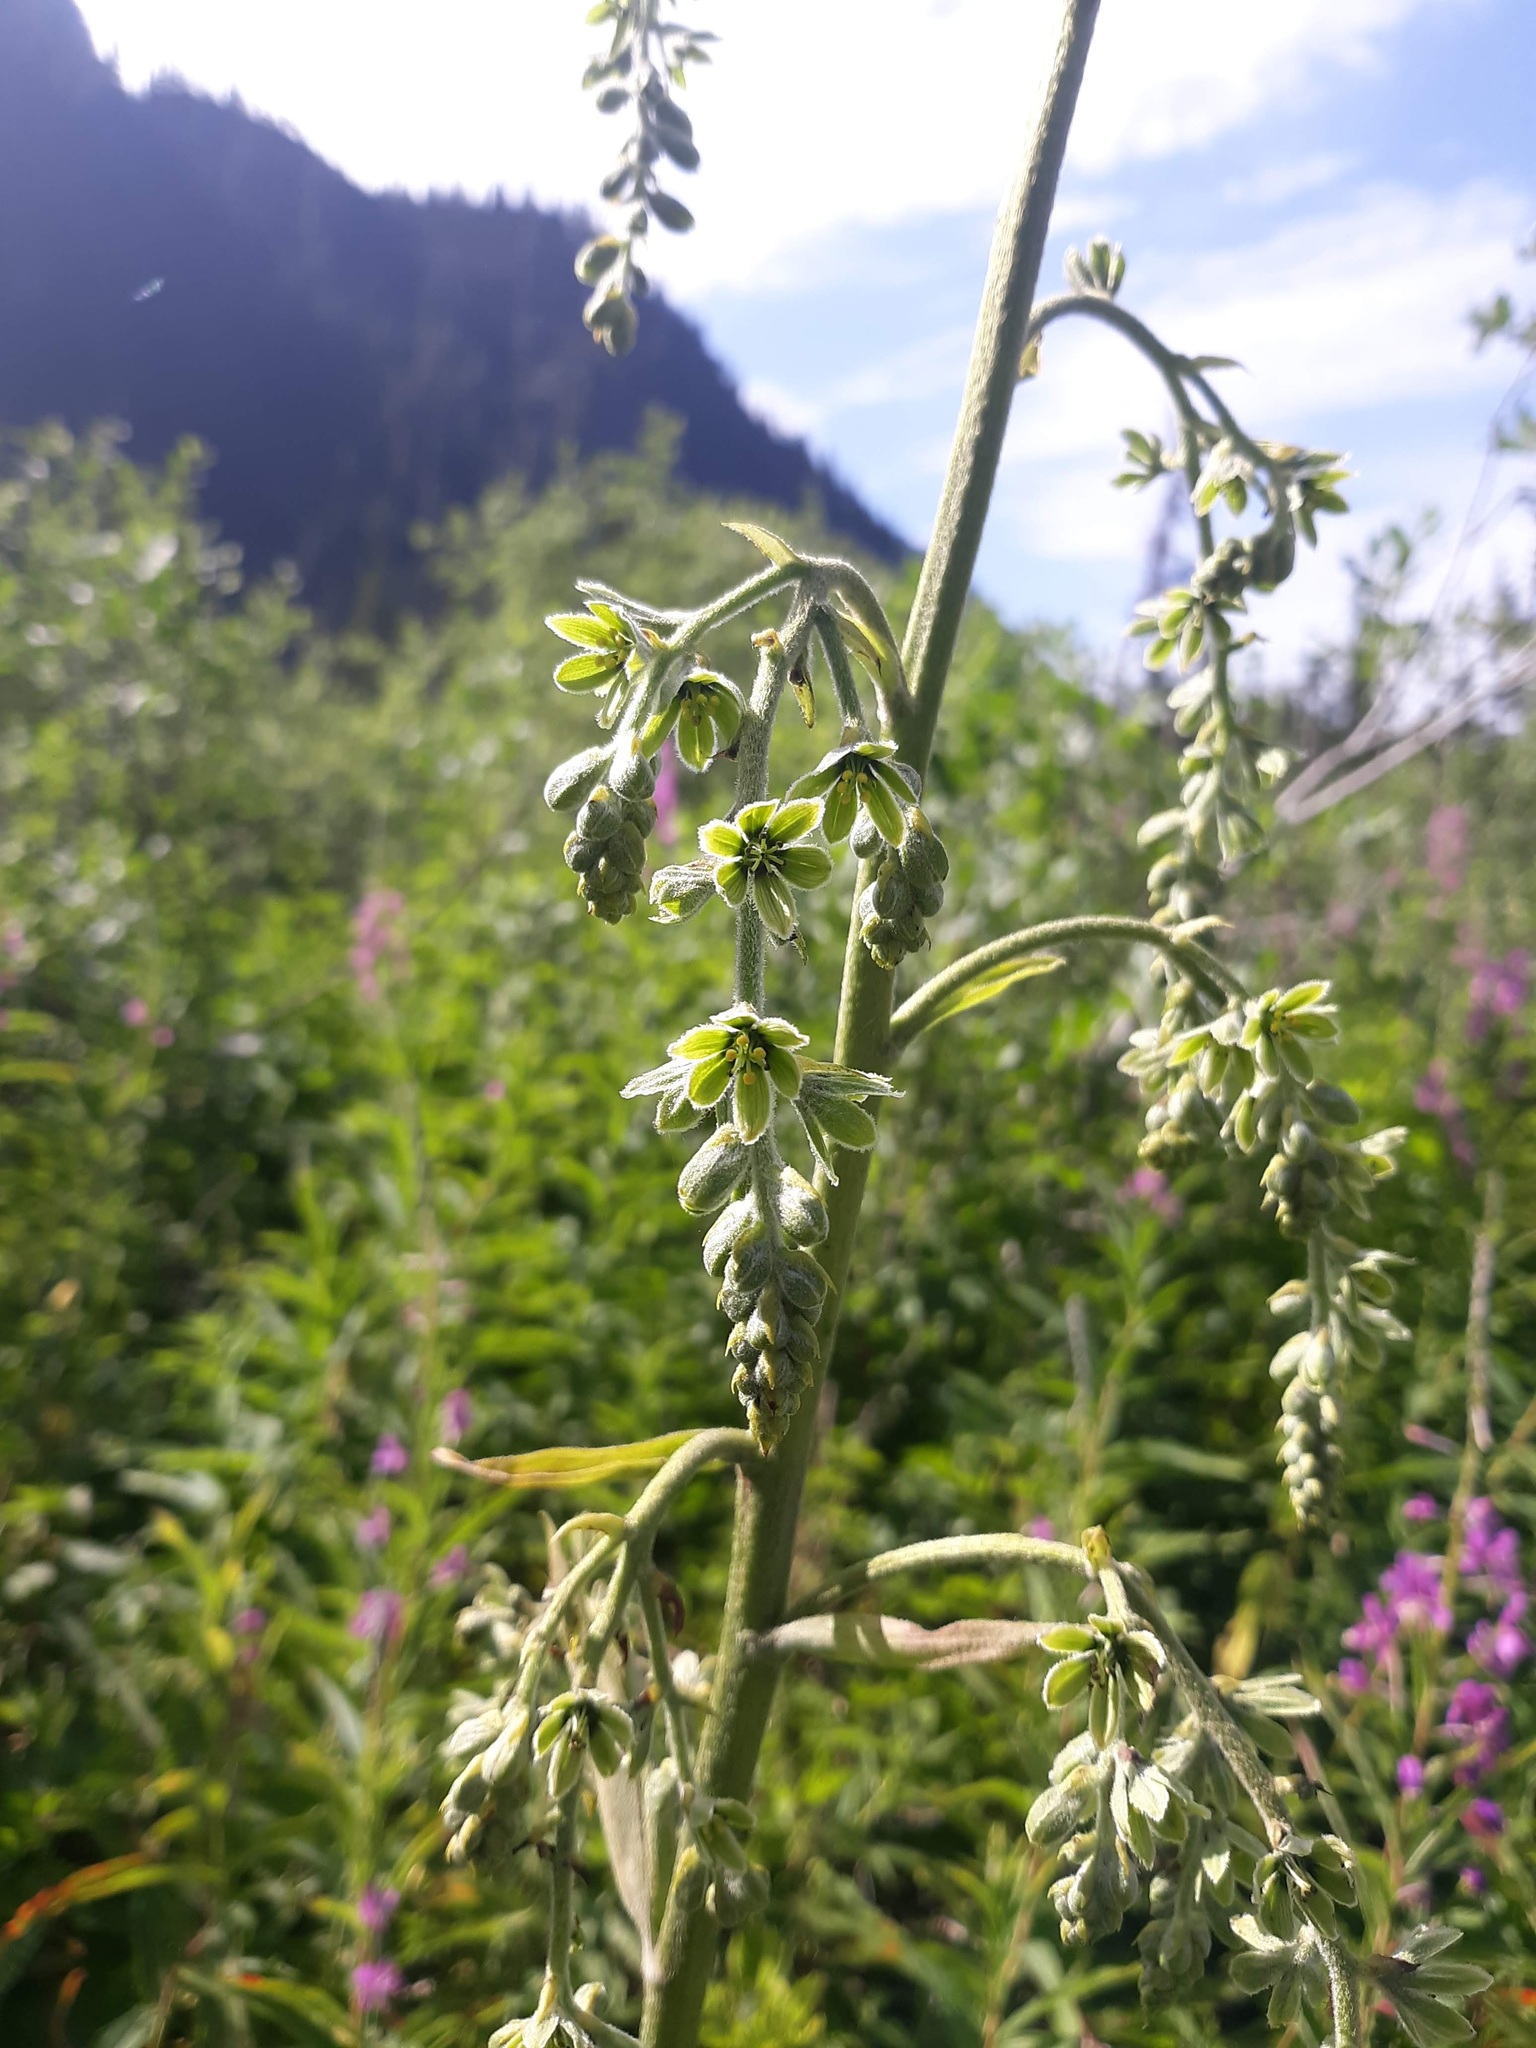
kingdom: Plantae
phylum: Tracheophyta
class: Liliopsida
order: Liliales
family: Melanthiaceae
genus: Veratrum
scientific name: Veratrum viride
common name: American false hellebore
